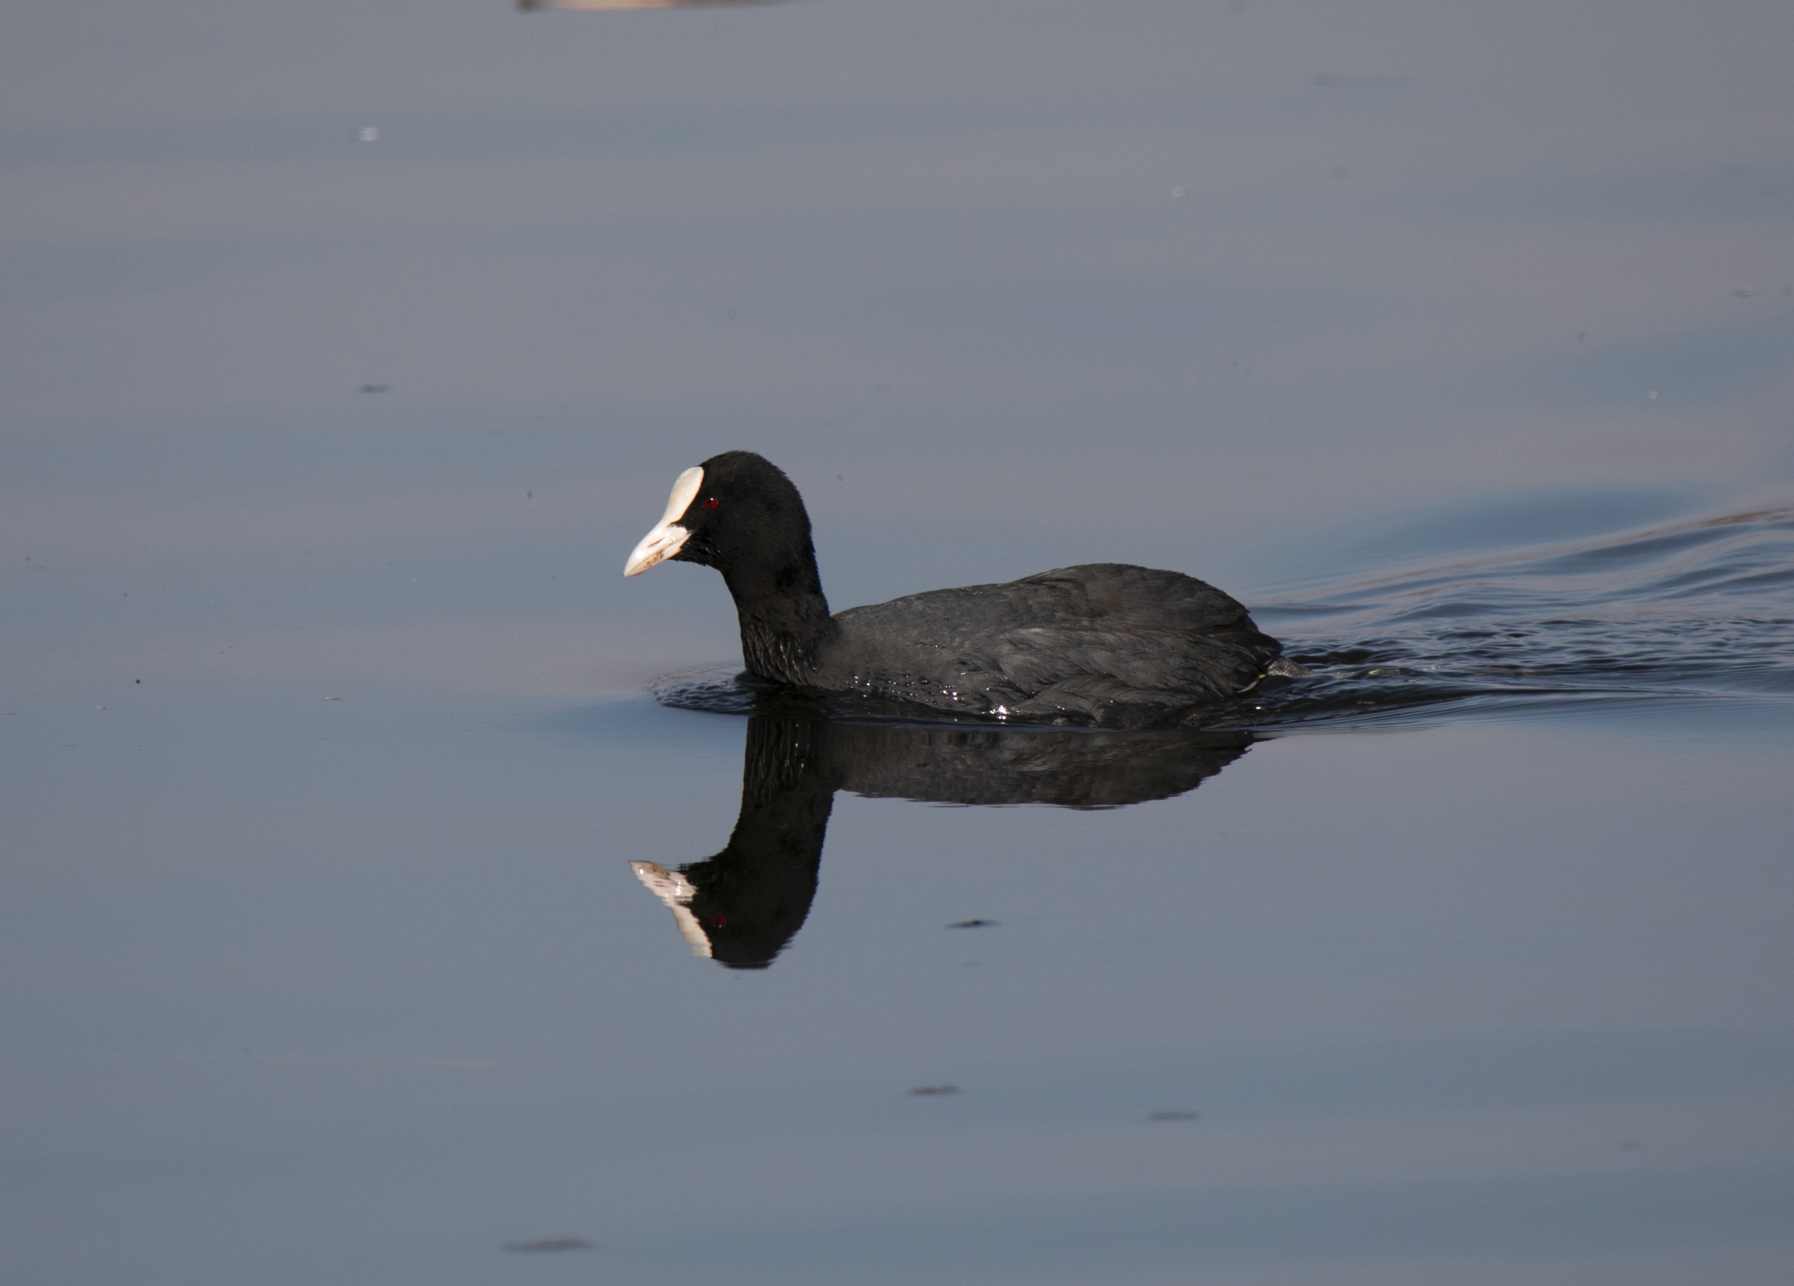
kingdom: Animalia
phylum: Chordata
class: Aves
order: Gruiformes
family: Rallidae
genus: Fulica
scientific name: Fulica atra
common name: Eurasian coot
